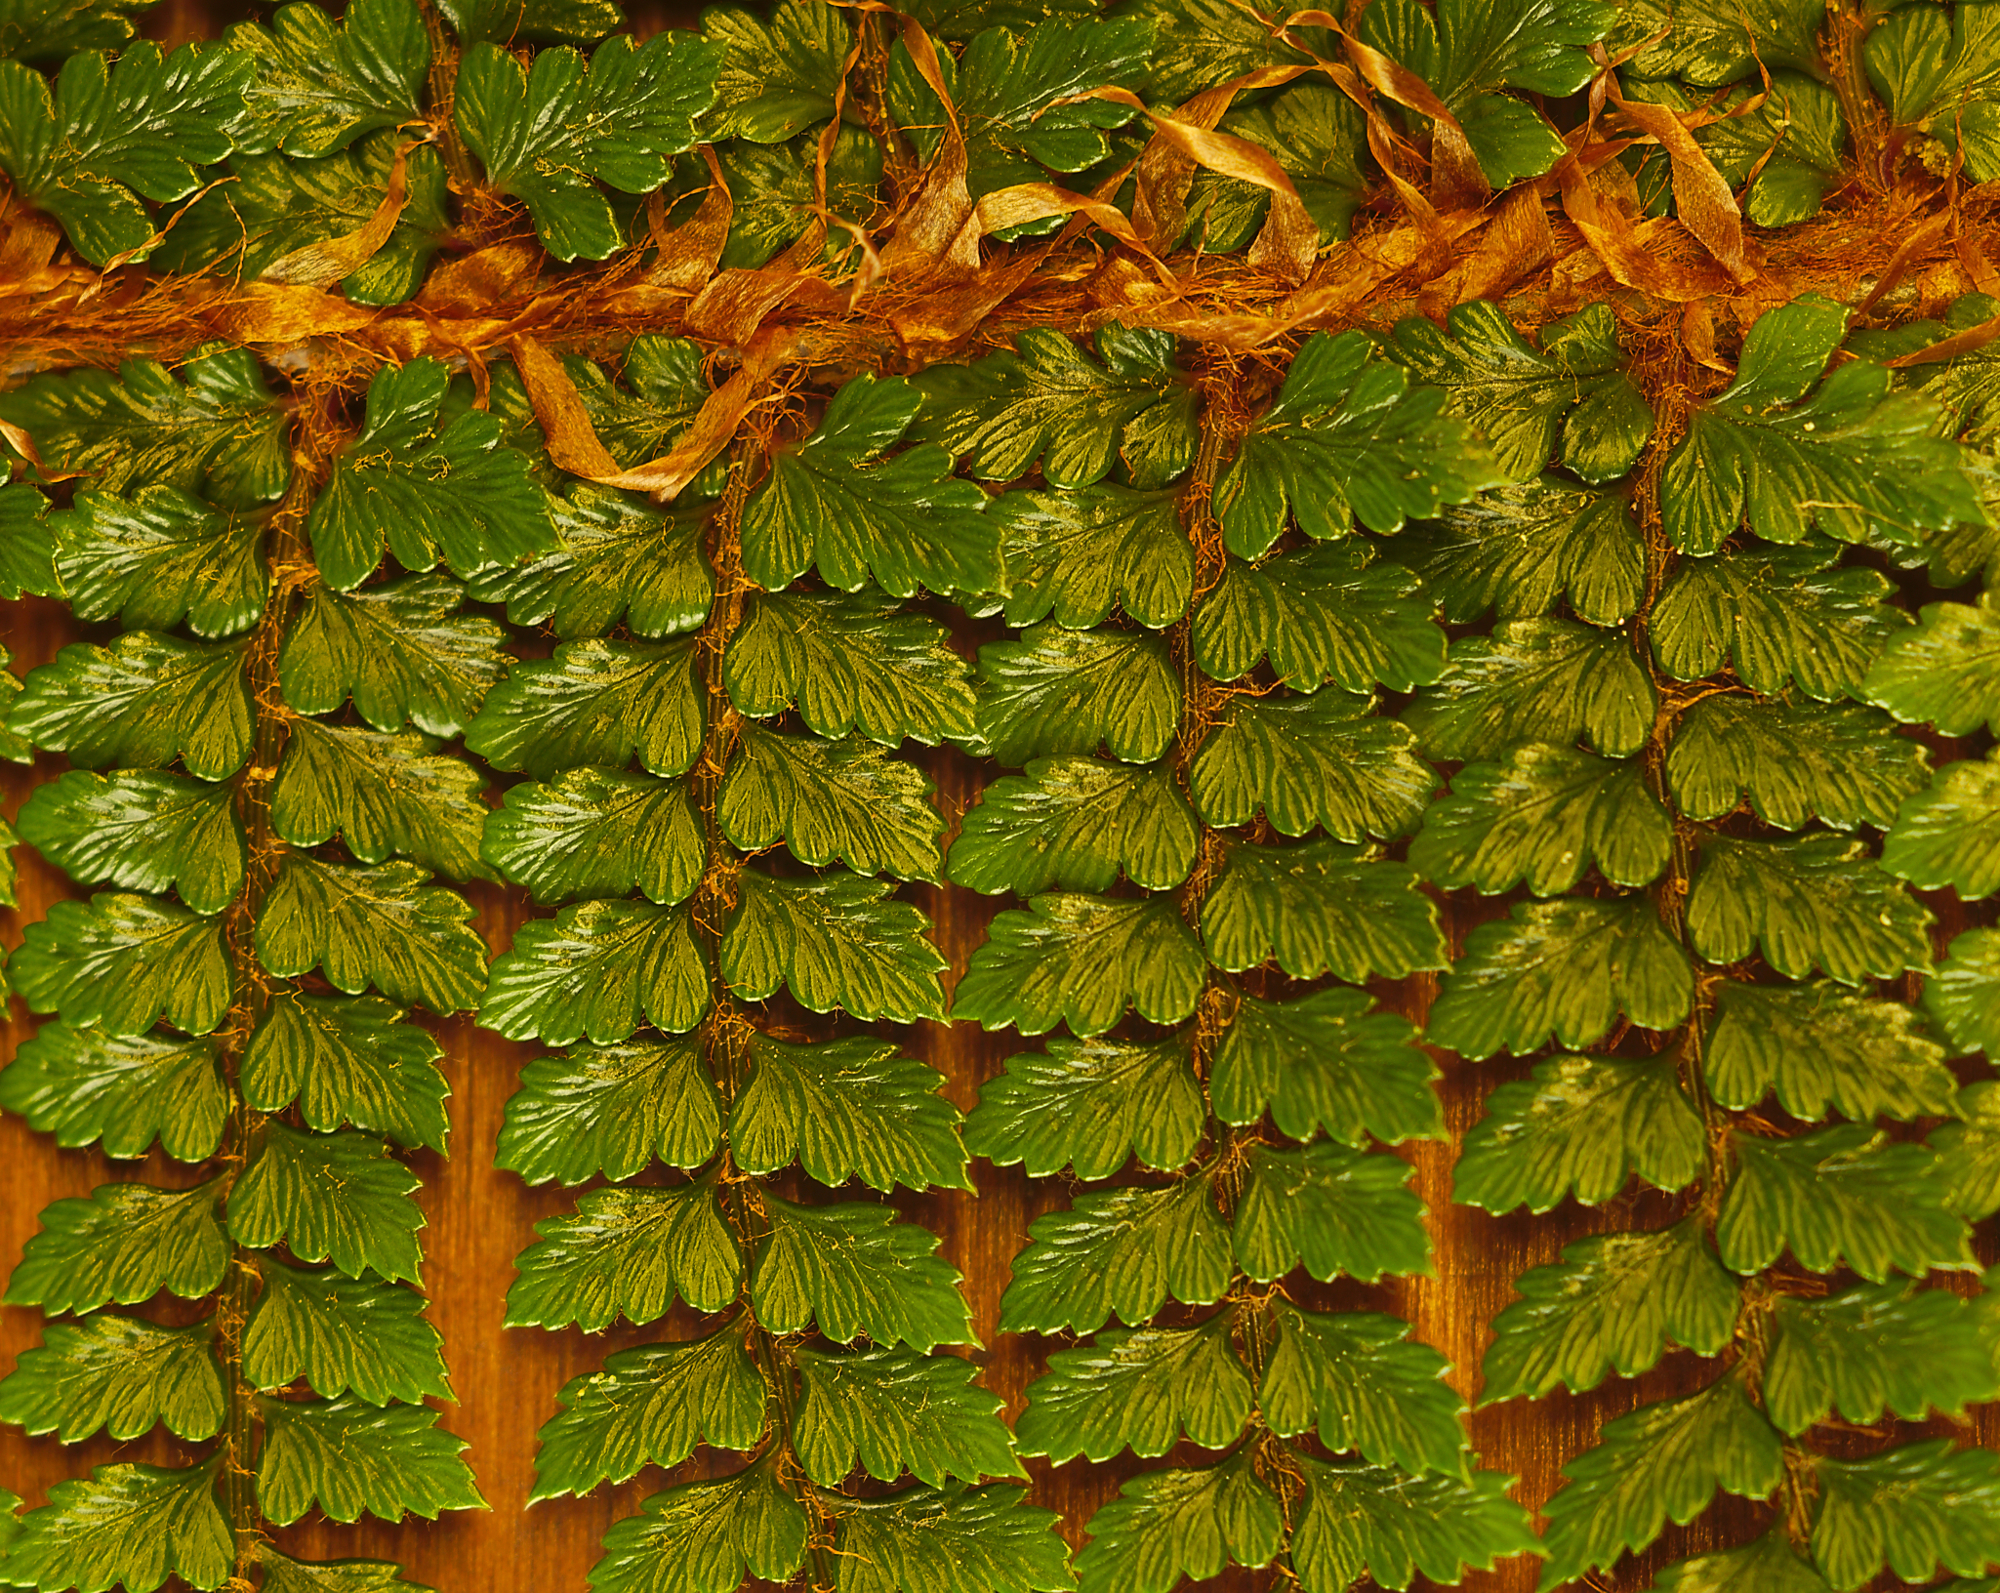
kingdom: Plantae
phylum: Tracheophyta
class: Polypodiopsida
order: Polypodiales
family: Dryopteridaceae
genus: Polystichum
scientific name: Polystichum vestitum
